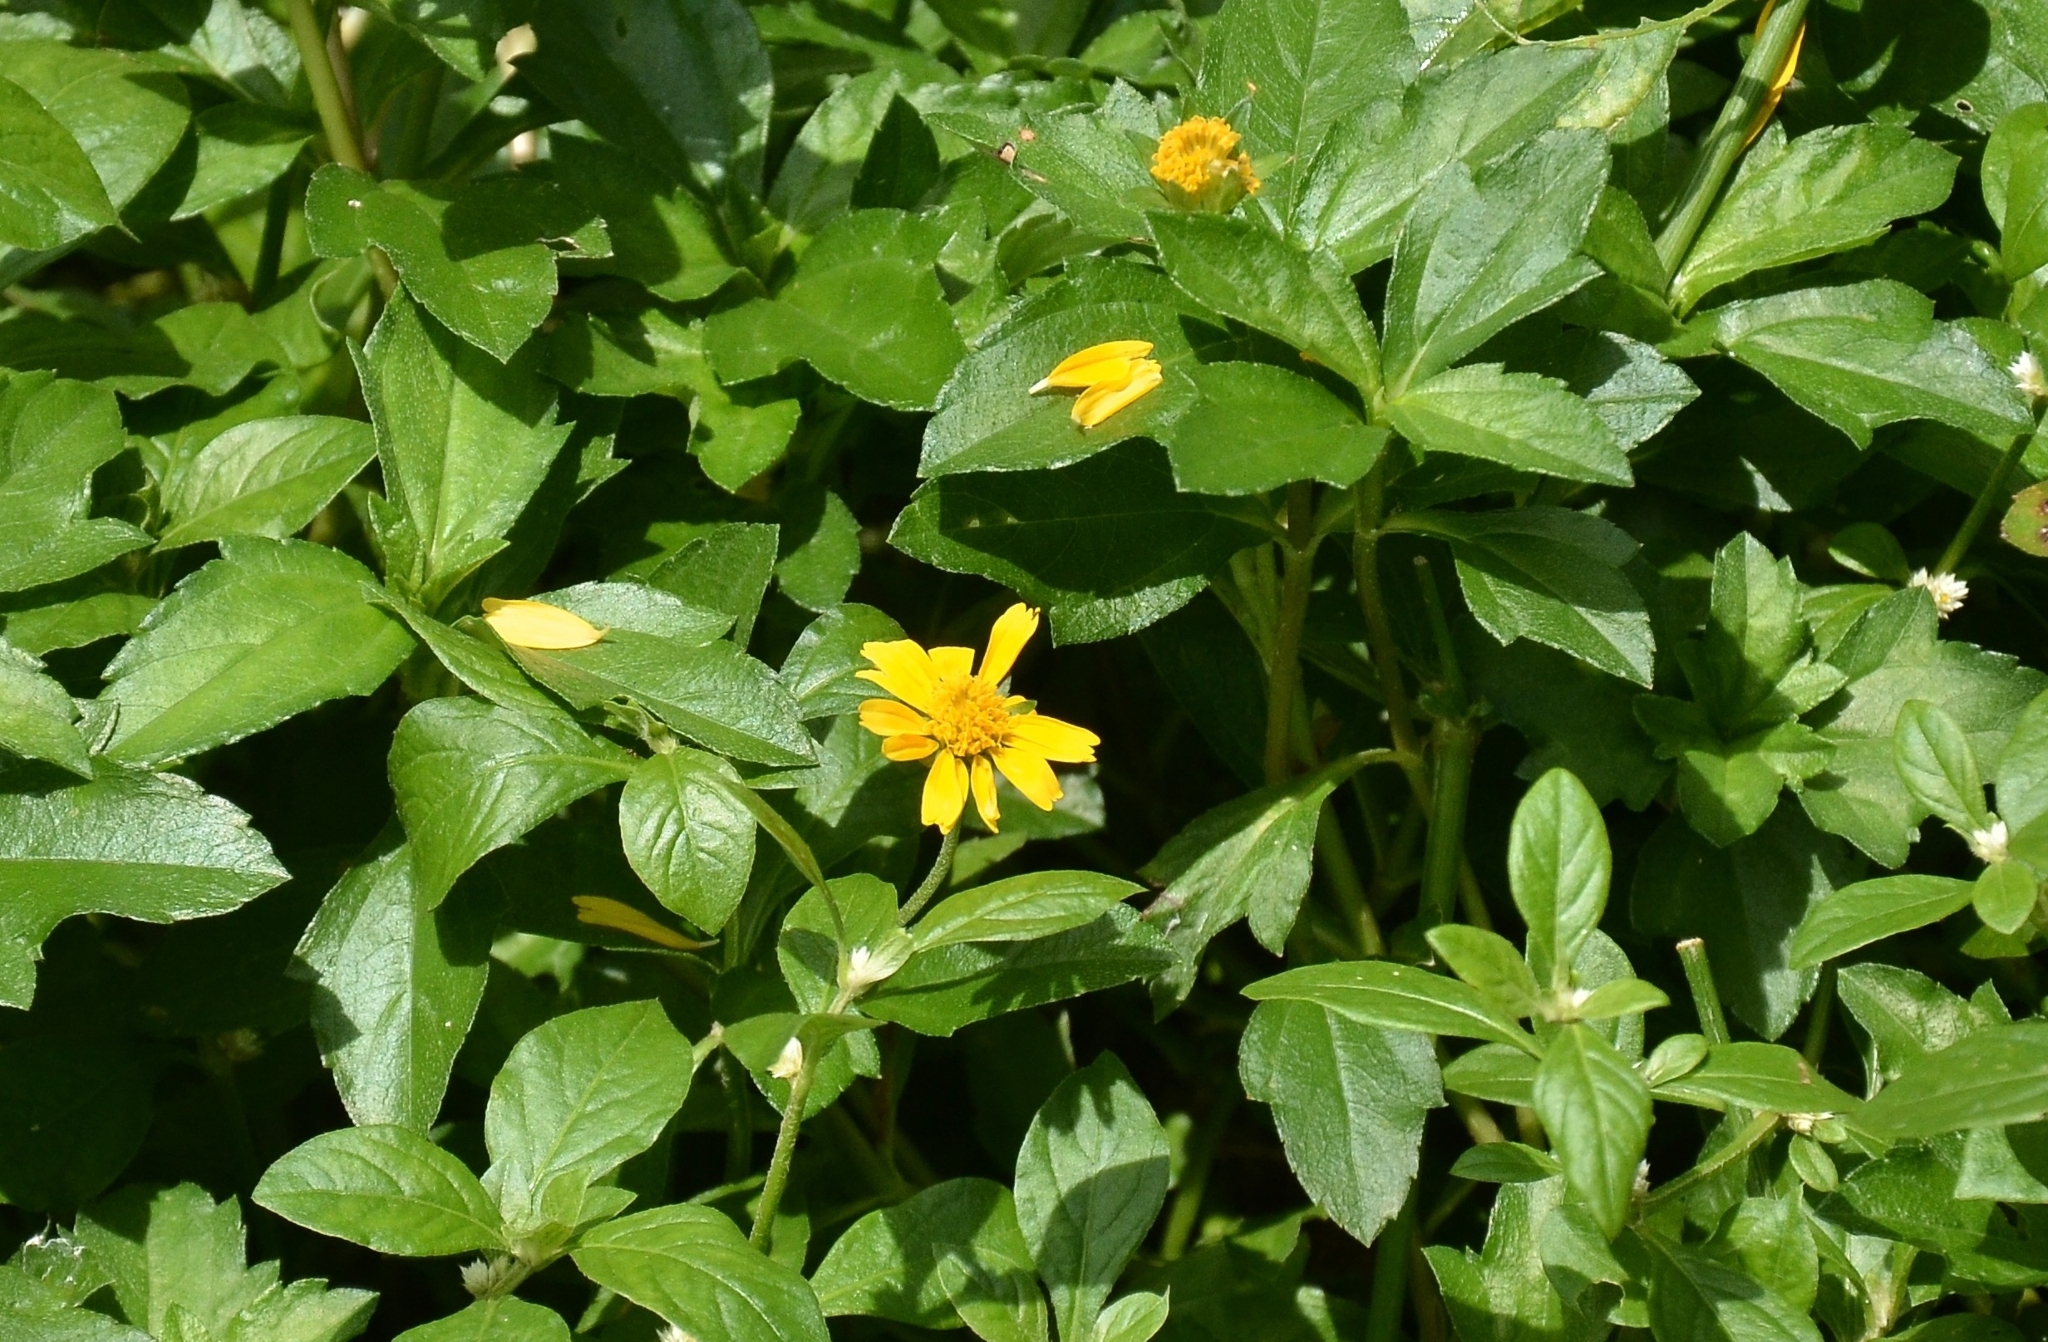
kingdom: Plantae
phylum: Tracheophyta
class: Magnoliopsida
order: Asterales
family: Asteraceae
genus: Sphagneticola
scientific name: Sphagneticola trilobata
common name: Bay biscayne creeping-oxeye
